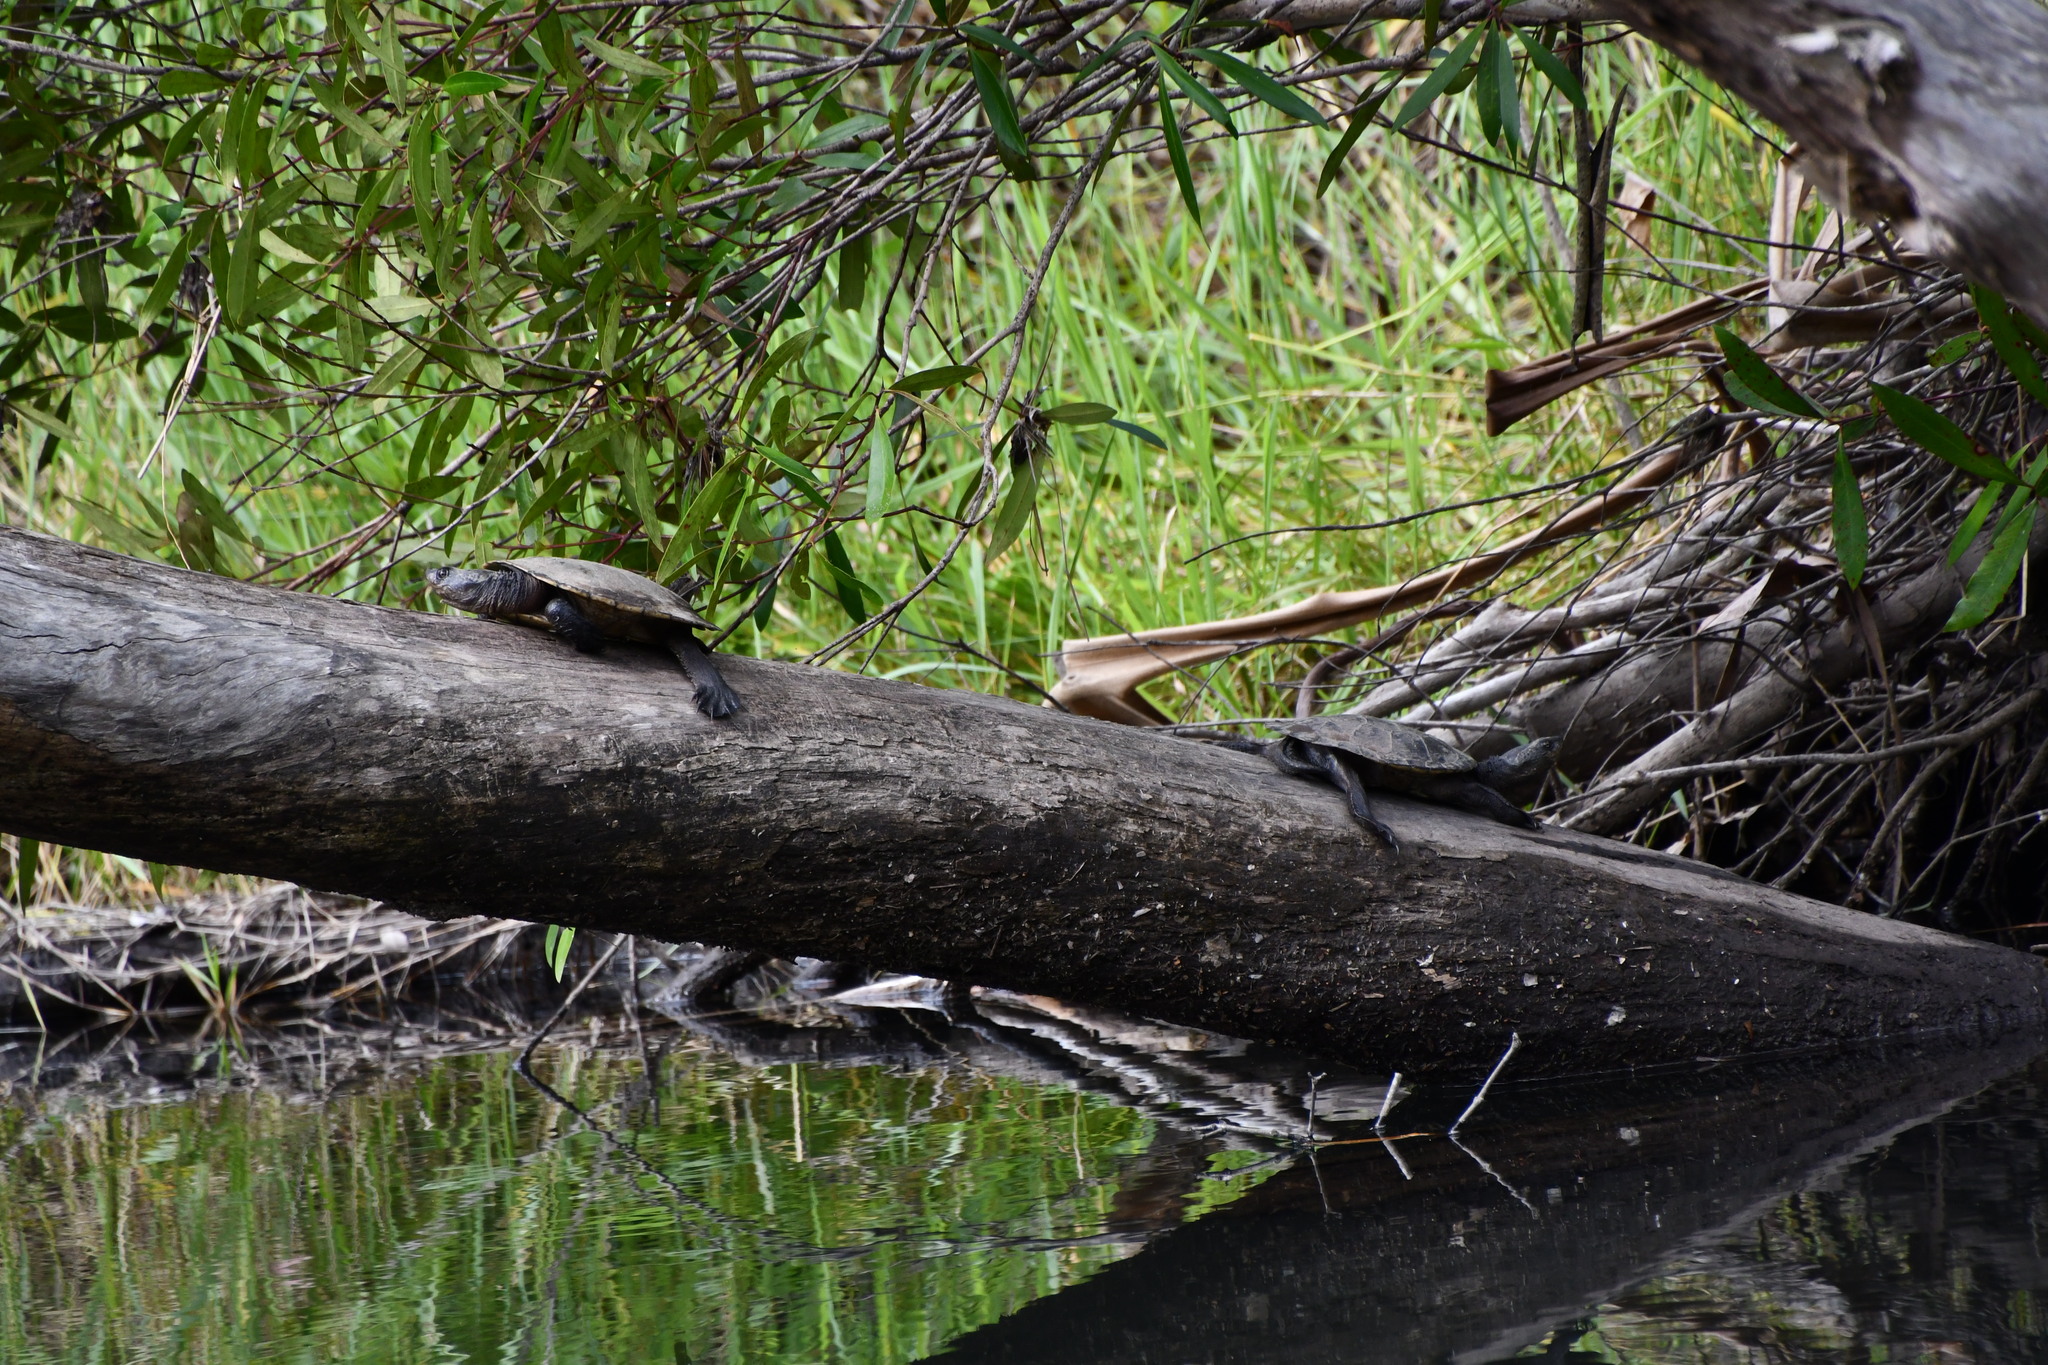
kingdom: Animalia
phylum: Chordata
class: Testudines
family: Chelidae
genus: Myuchelys
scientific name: Myuchelys latisternum
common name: Serrated snapping turtle
